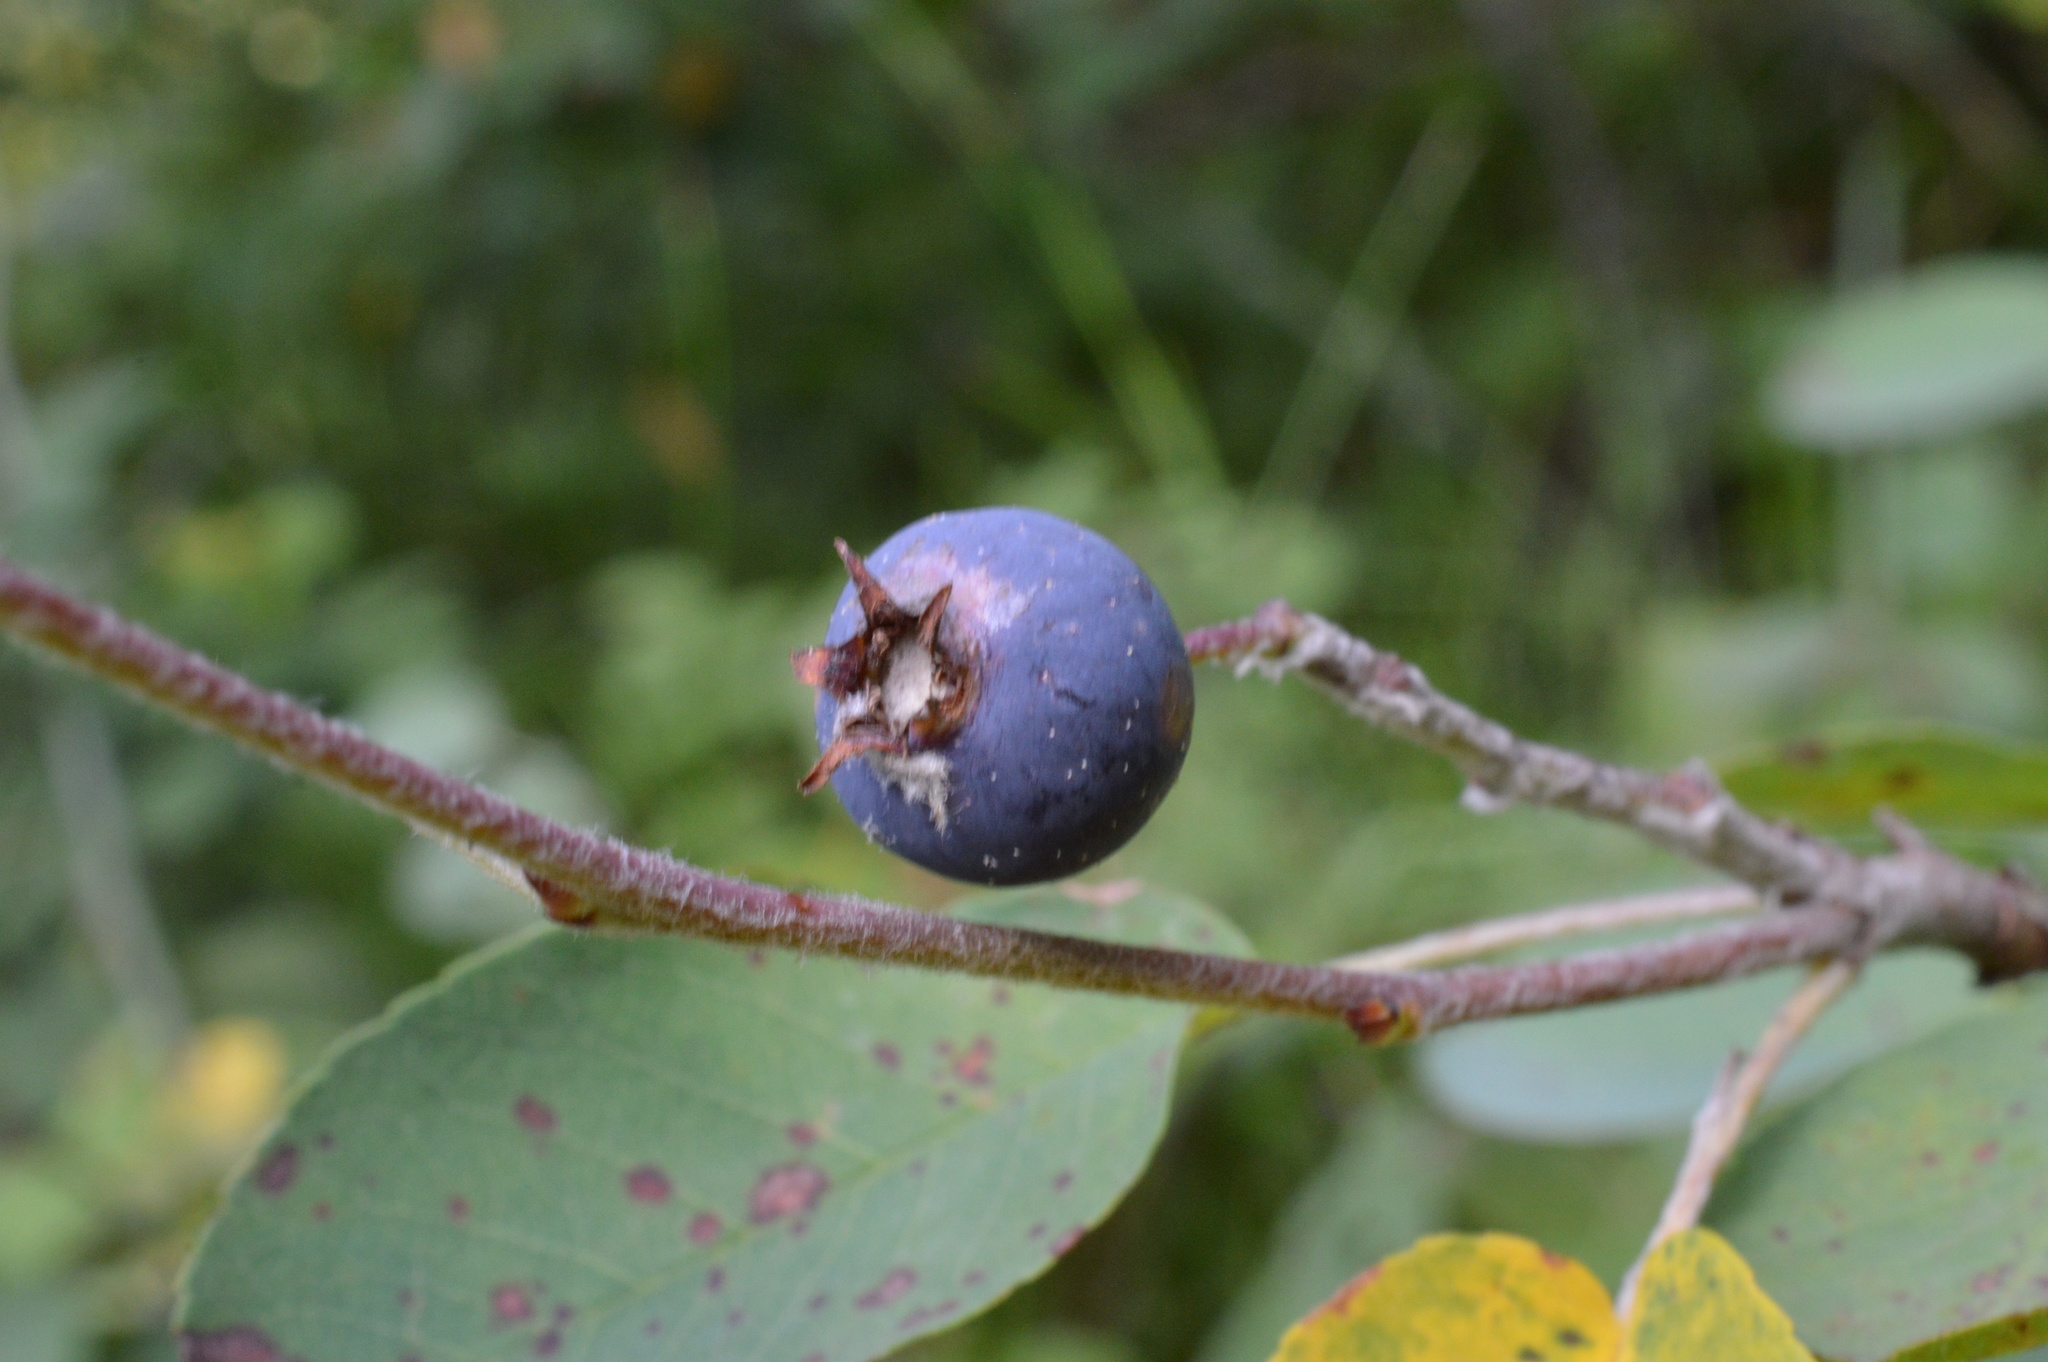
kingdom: Plantae
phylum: Tracheophyta
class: Magnoliopsida
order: Rosales
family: Rosaceae
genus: Amelanchier
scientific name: Amelanchier ovalis
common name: Serviceberry
